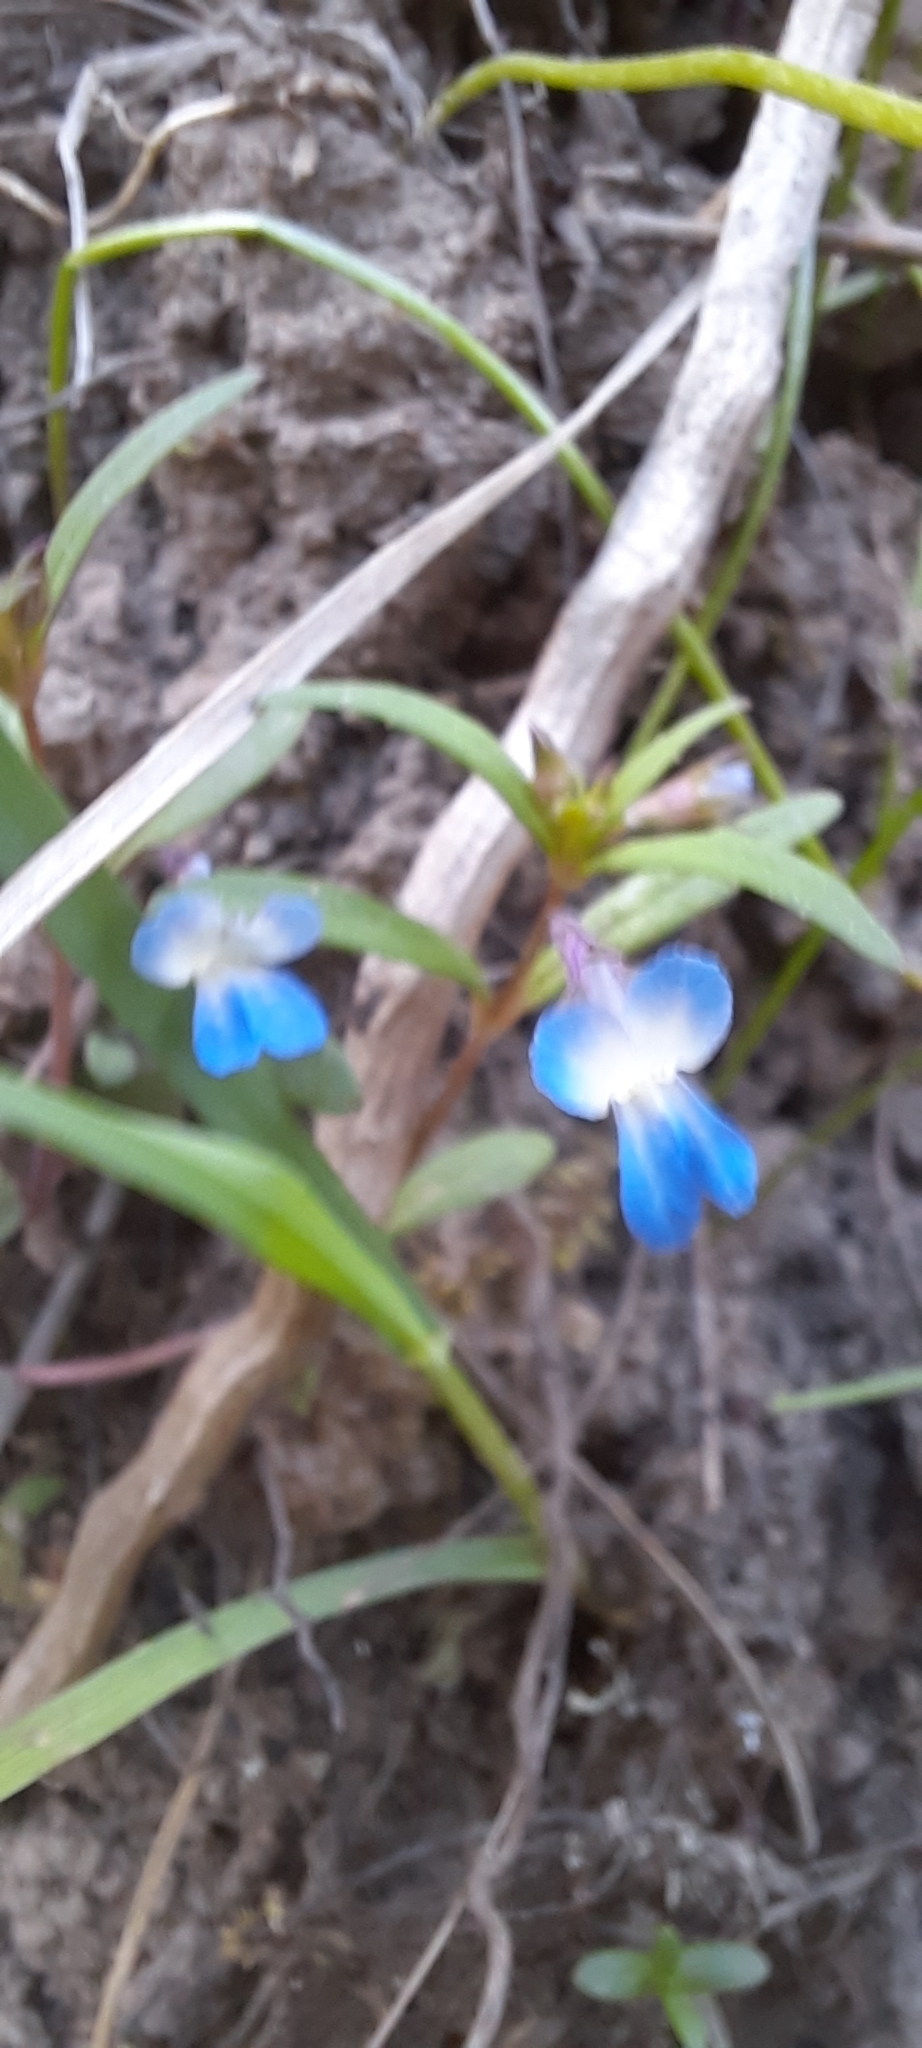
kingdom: Plantae
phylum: Tracheophyta
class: Magnoliopsida
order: Lamiales
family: Plantaginaceae
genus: Collinsia
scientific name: Collinsia parviflora
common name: Blue-lips
